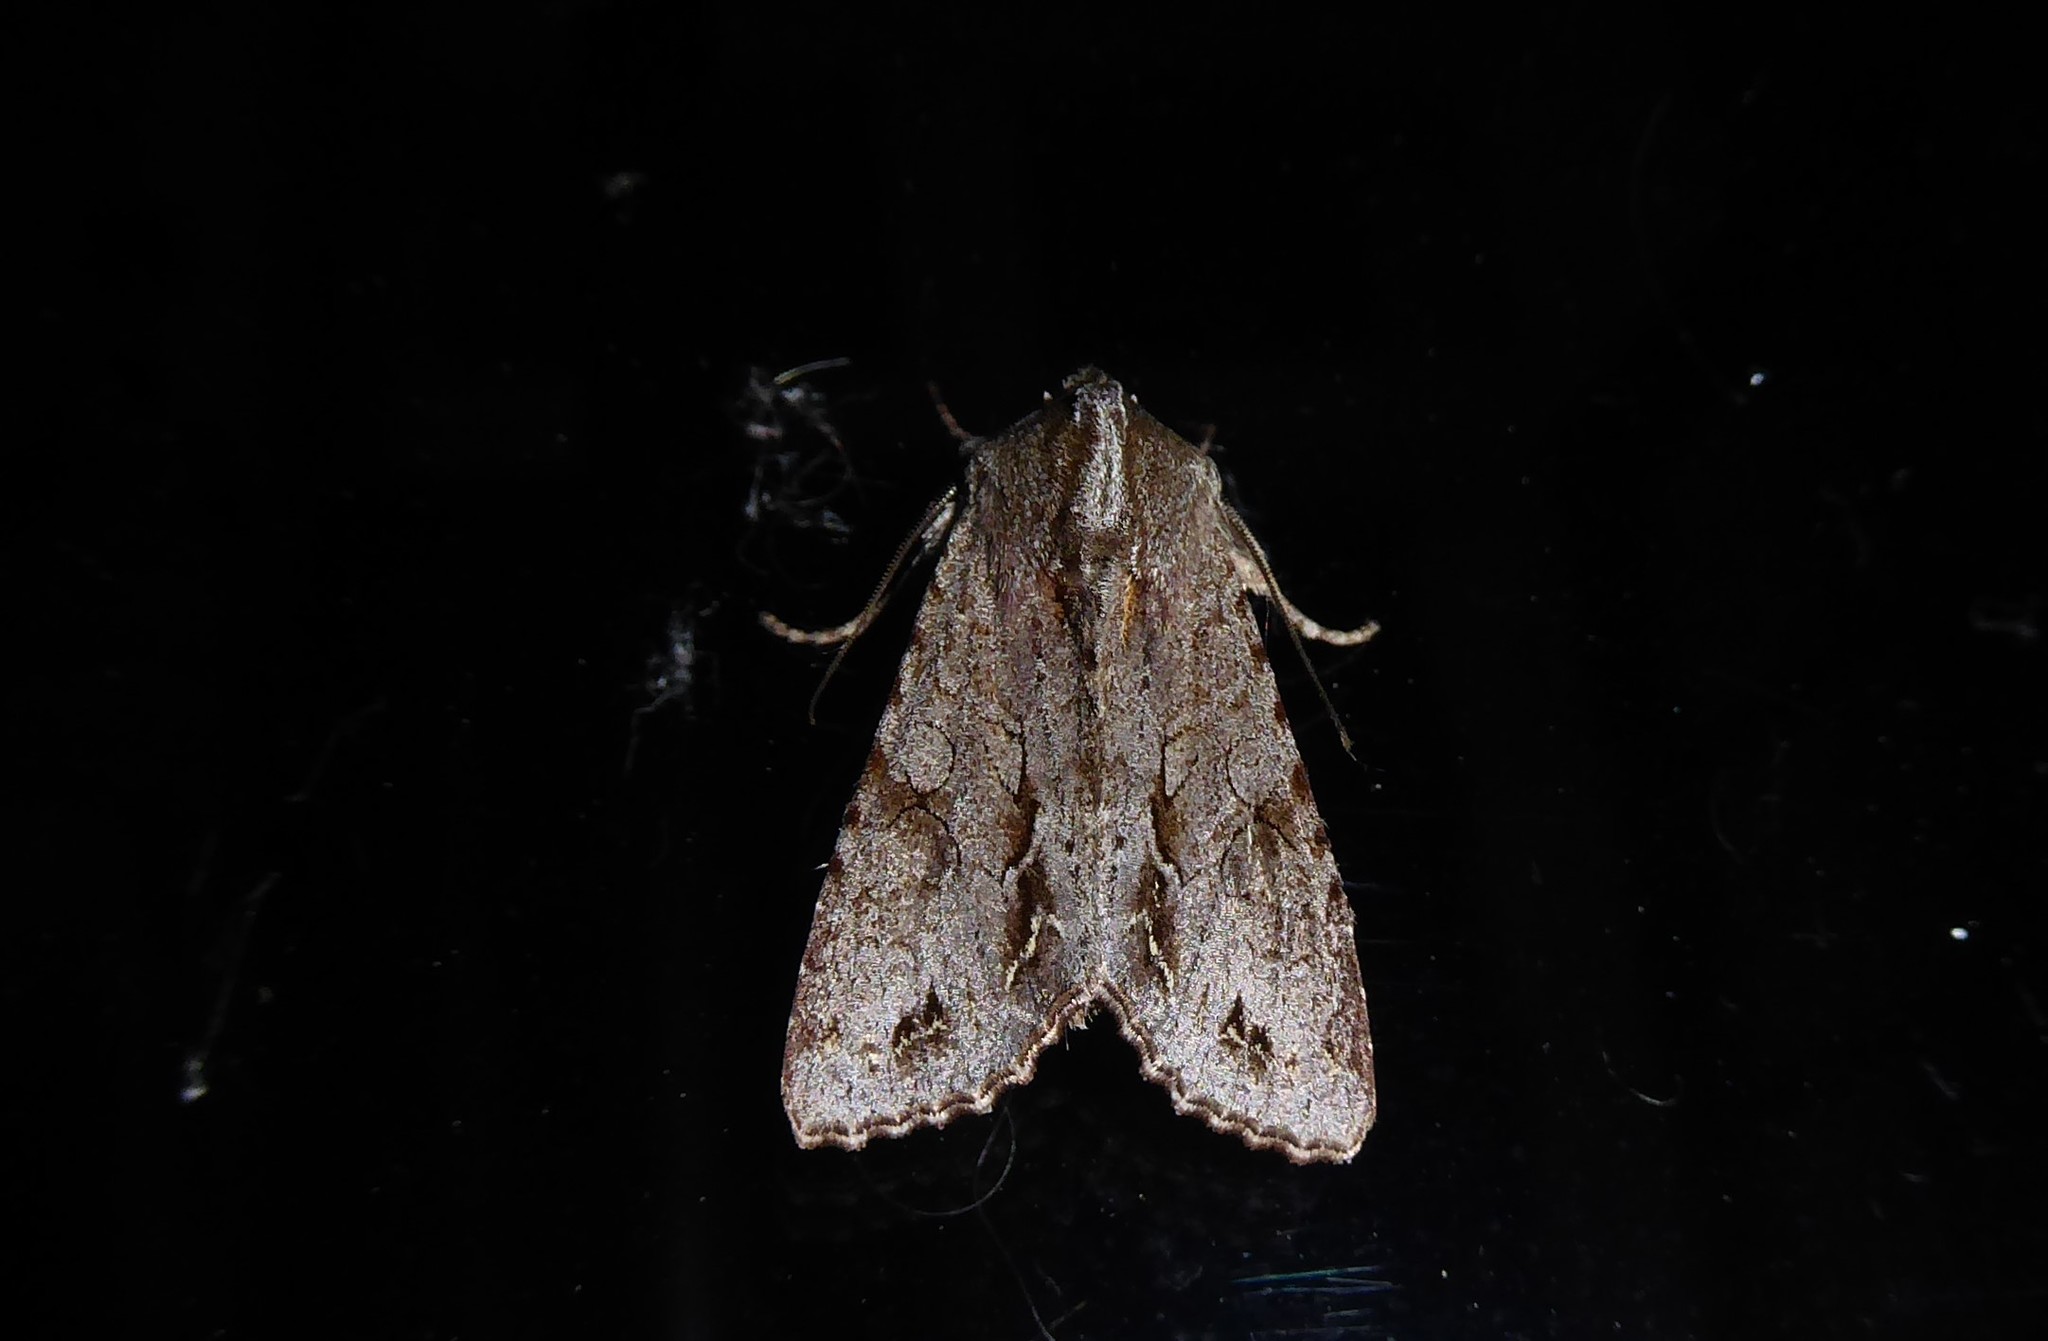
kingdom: Animalia
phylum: Arthropoda
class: Insecta
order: Lepidoptera
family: Noctuidae
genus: Ichneutica
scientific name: Ichneutica
